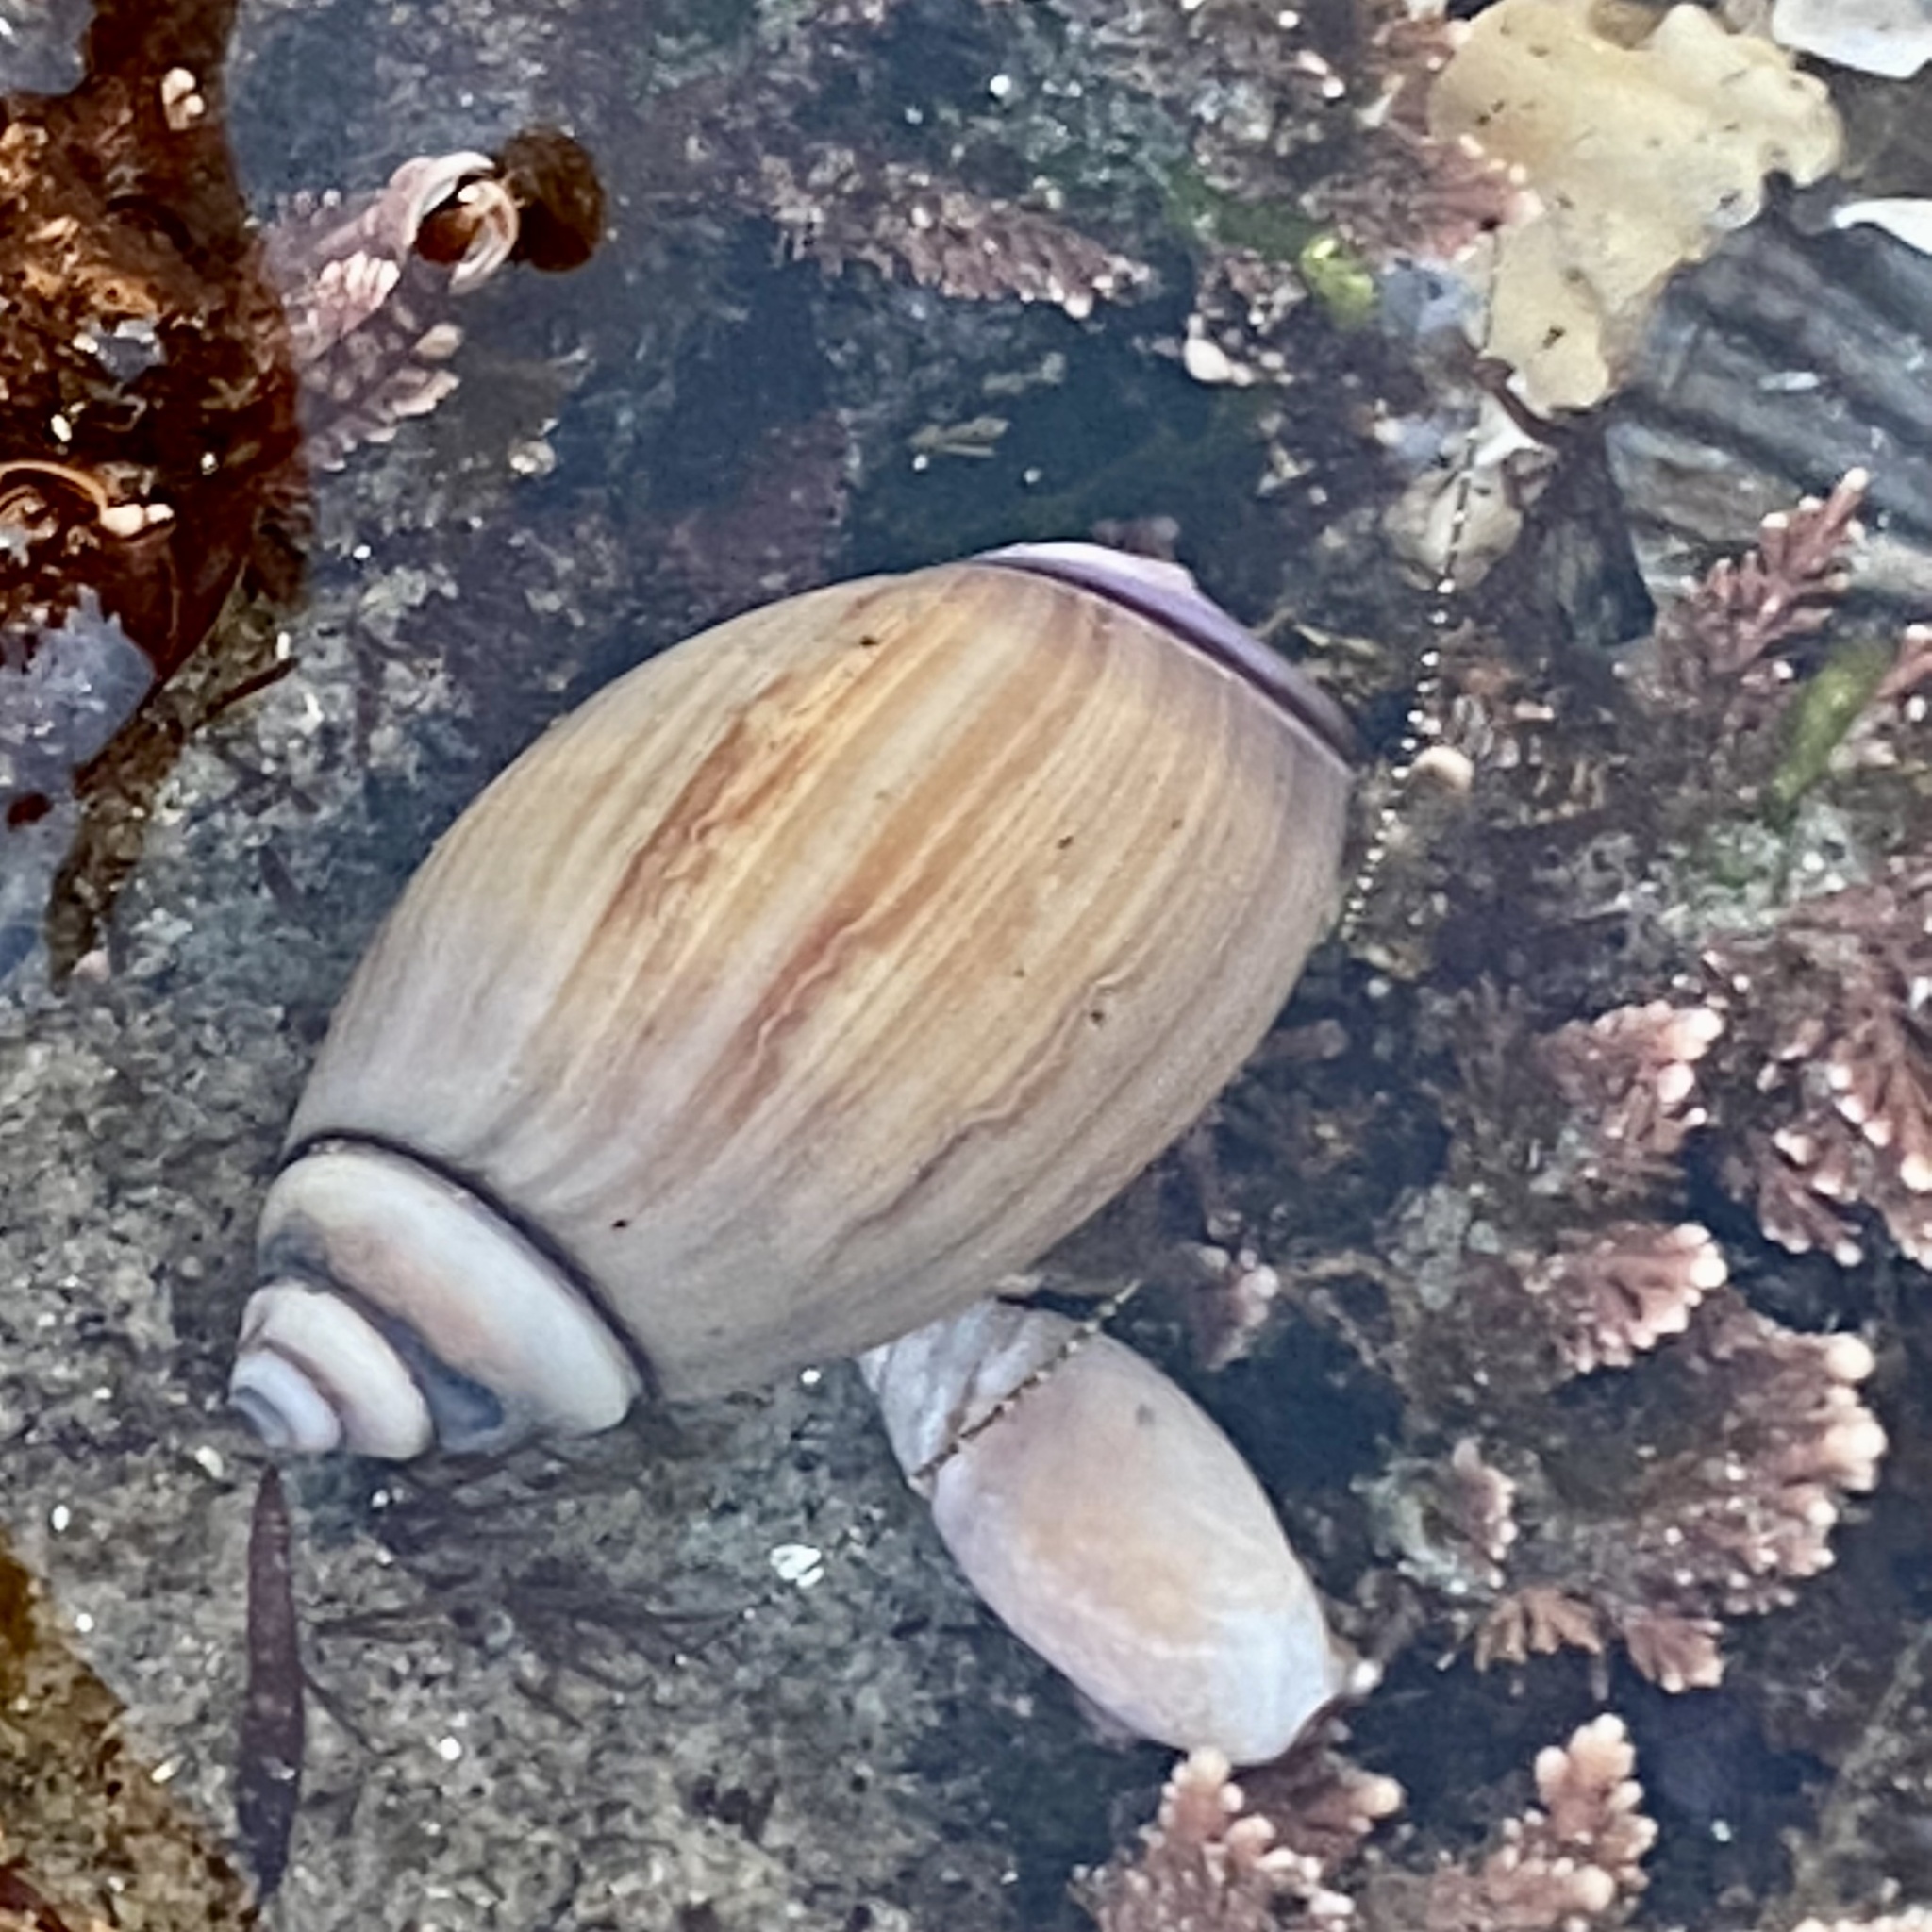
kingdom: Animalia
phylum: Mollusca
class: Gastropoda
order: Neogastropoda
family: Olividae
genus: Callianax
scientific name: Callianax biplicata
